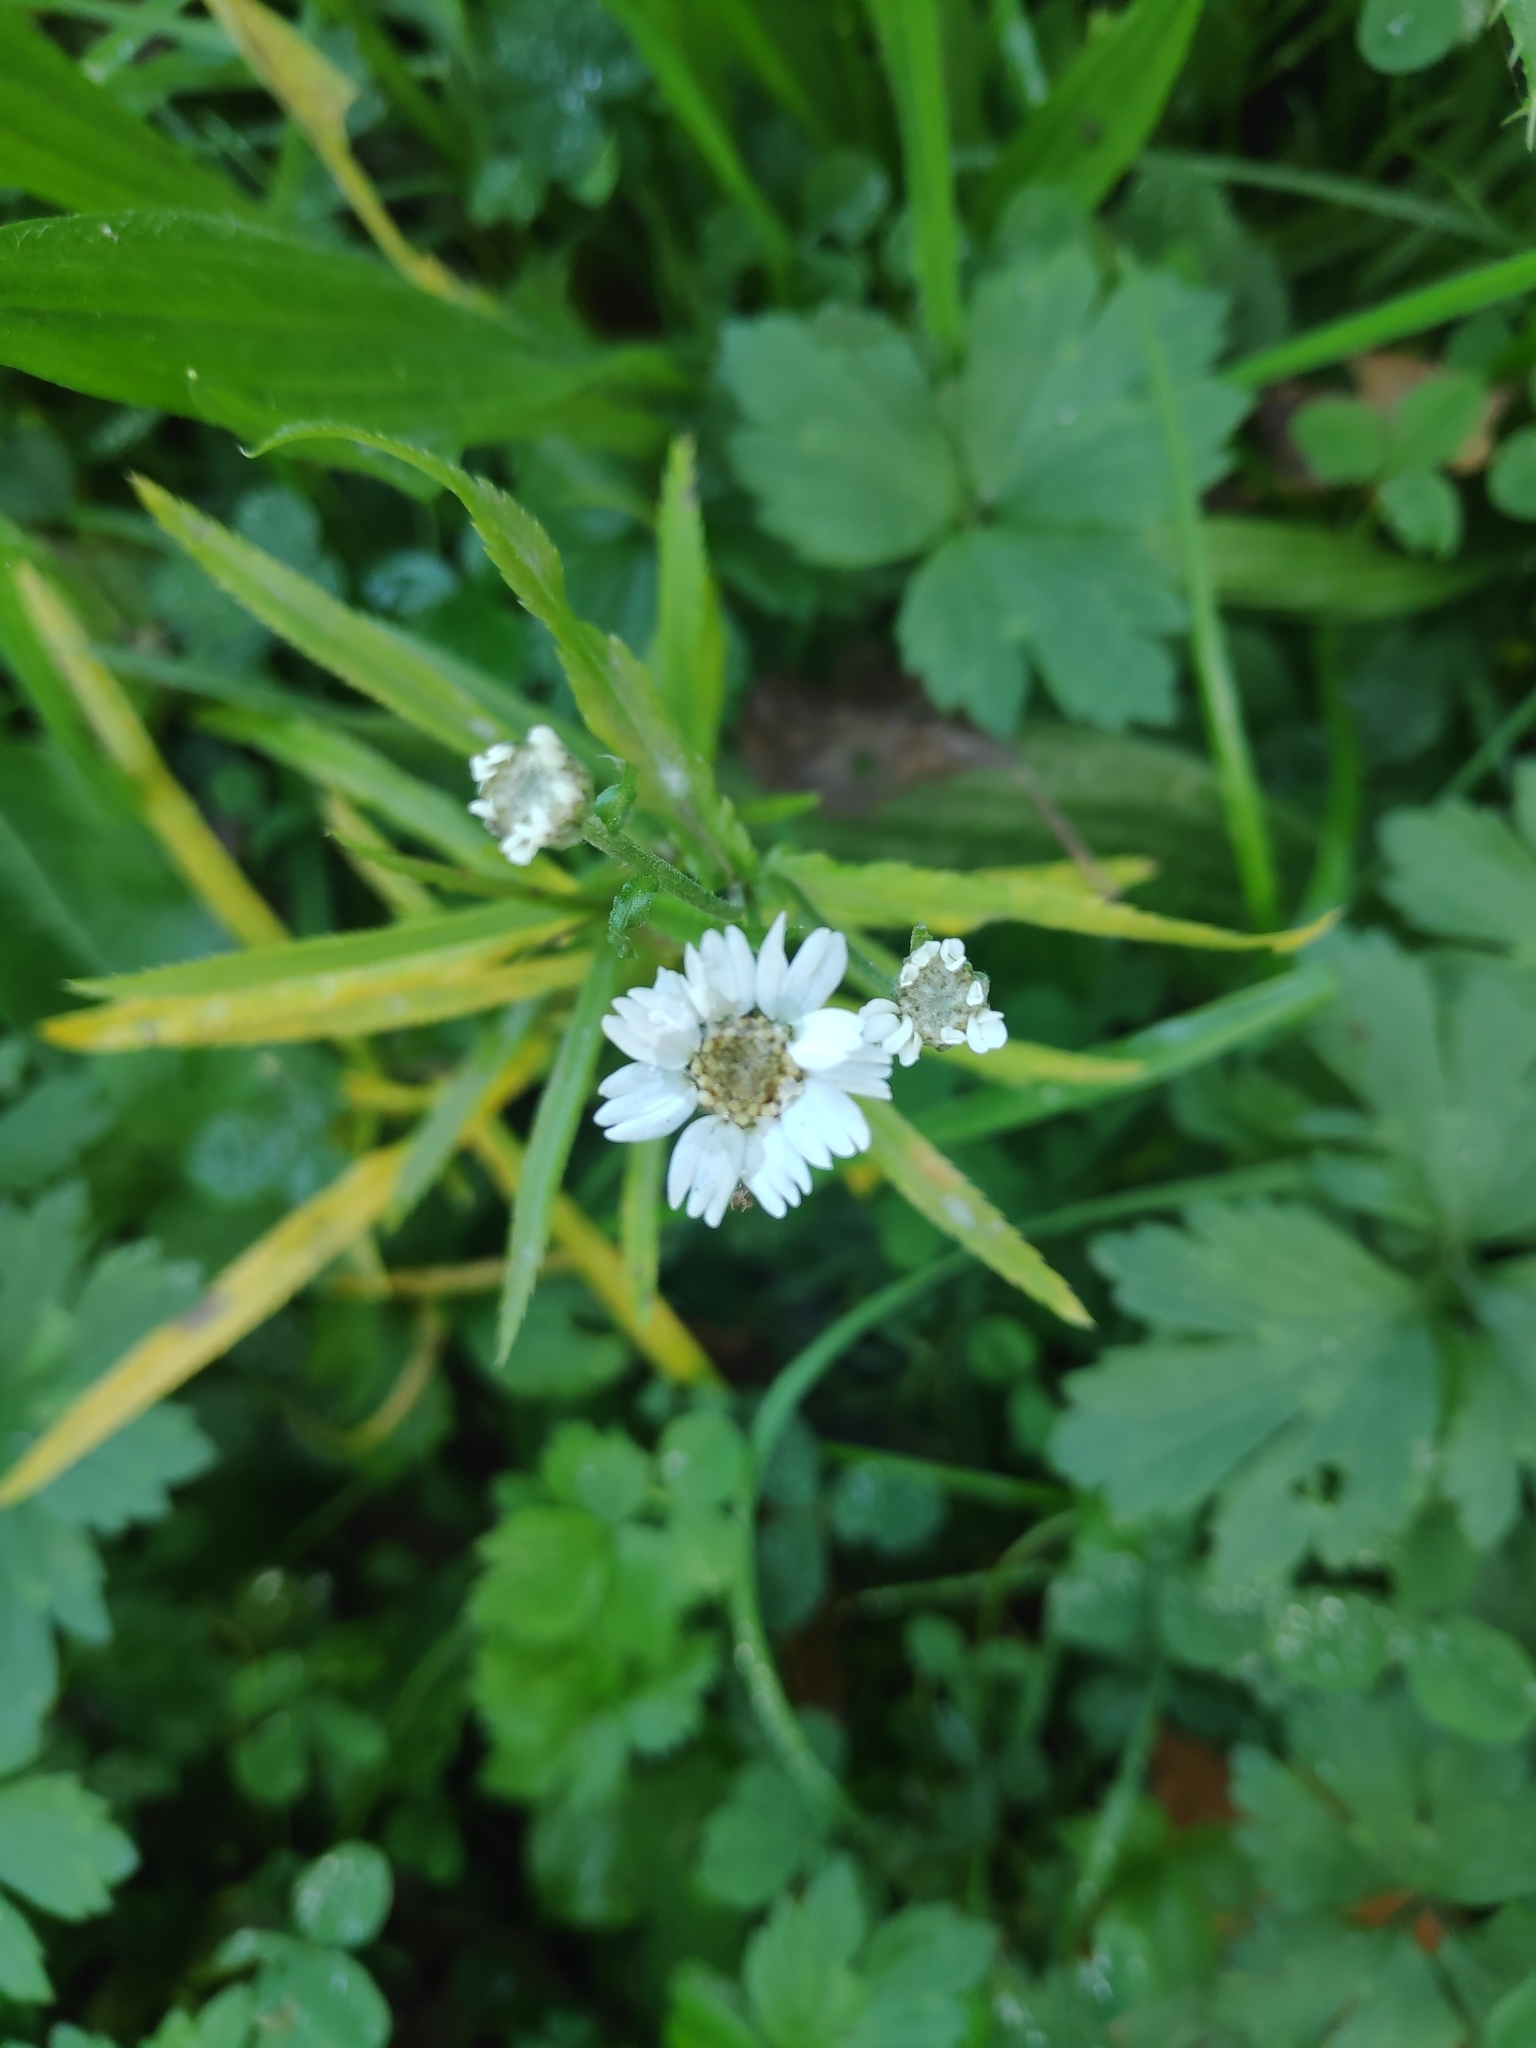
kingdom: Plantae
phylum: Tracheophyta
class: Magnoliopsida
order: Asterales
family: Asteraceae
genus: Achillea
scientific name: Achillea ptarmica
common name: Sneezeweed
